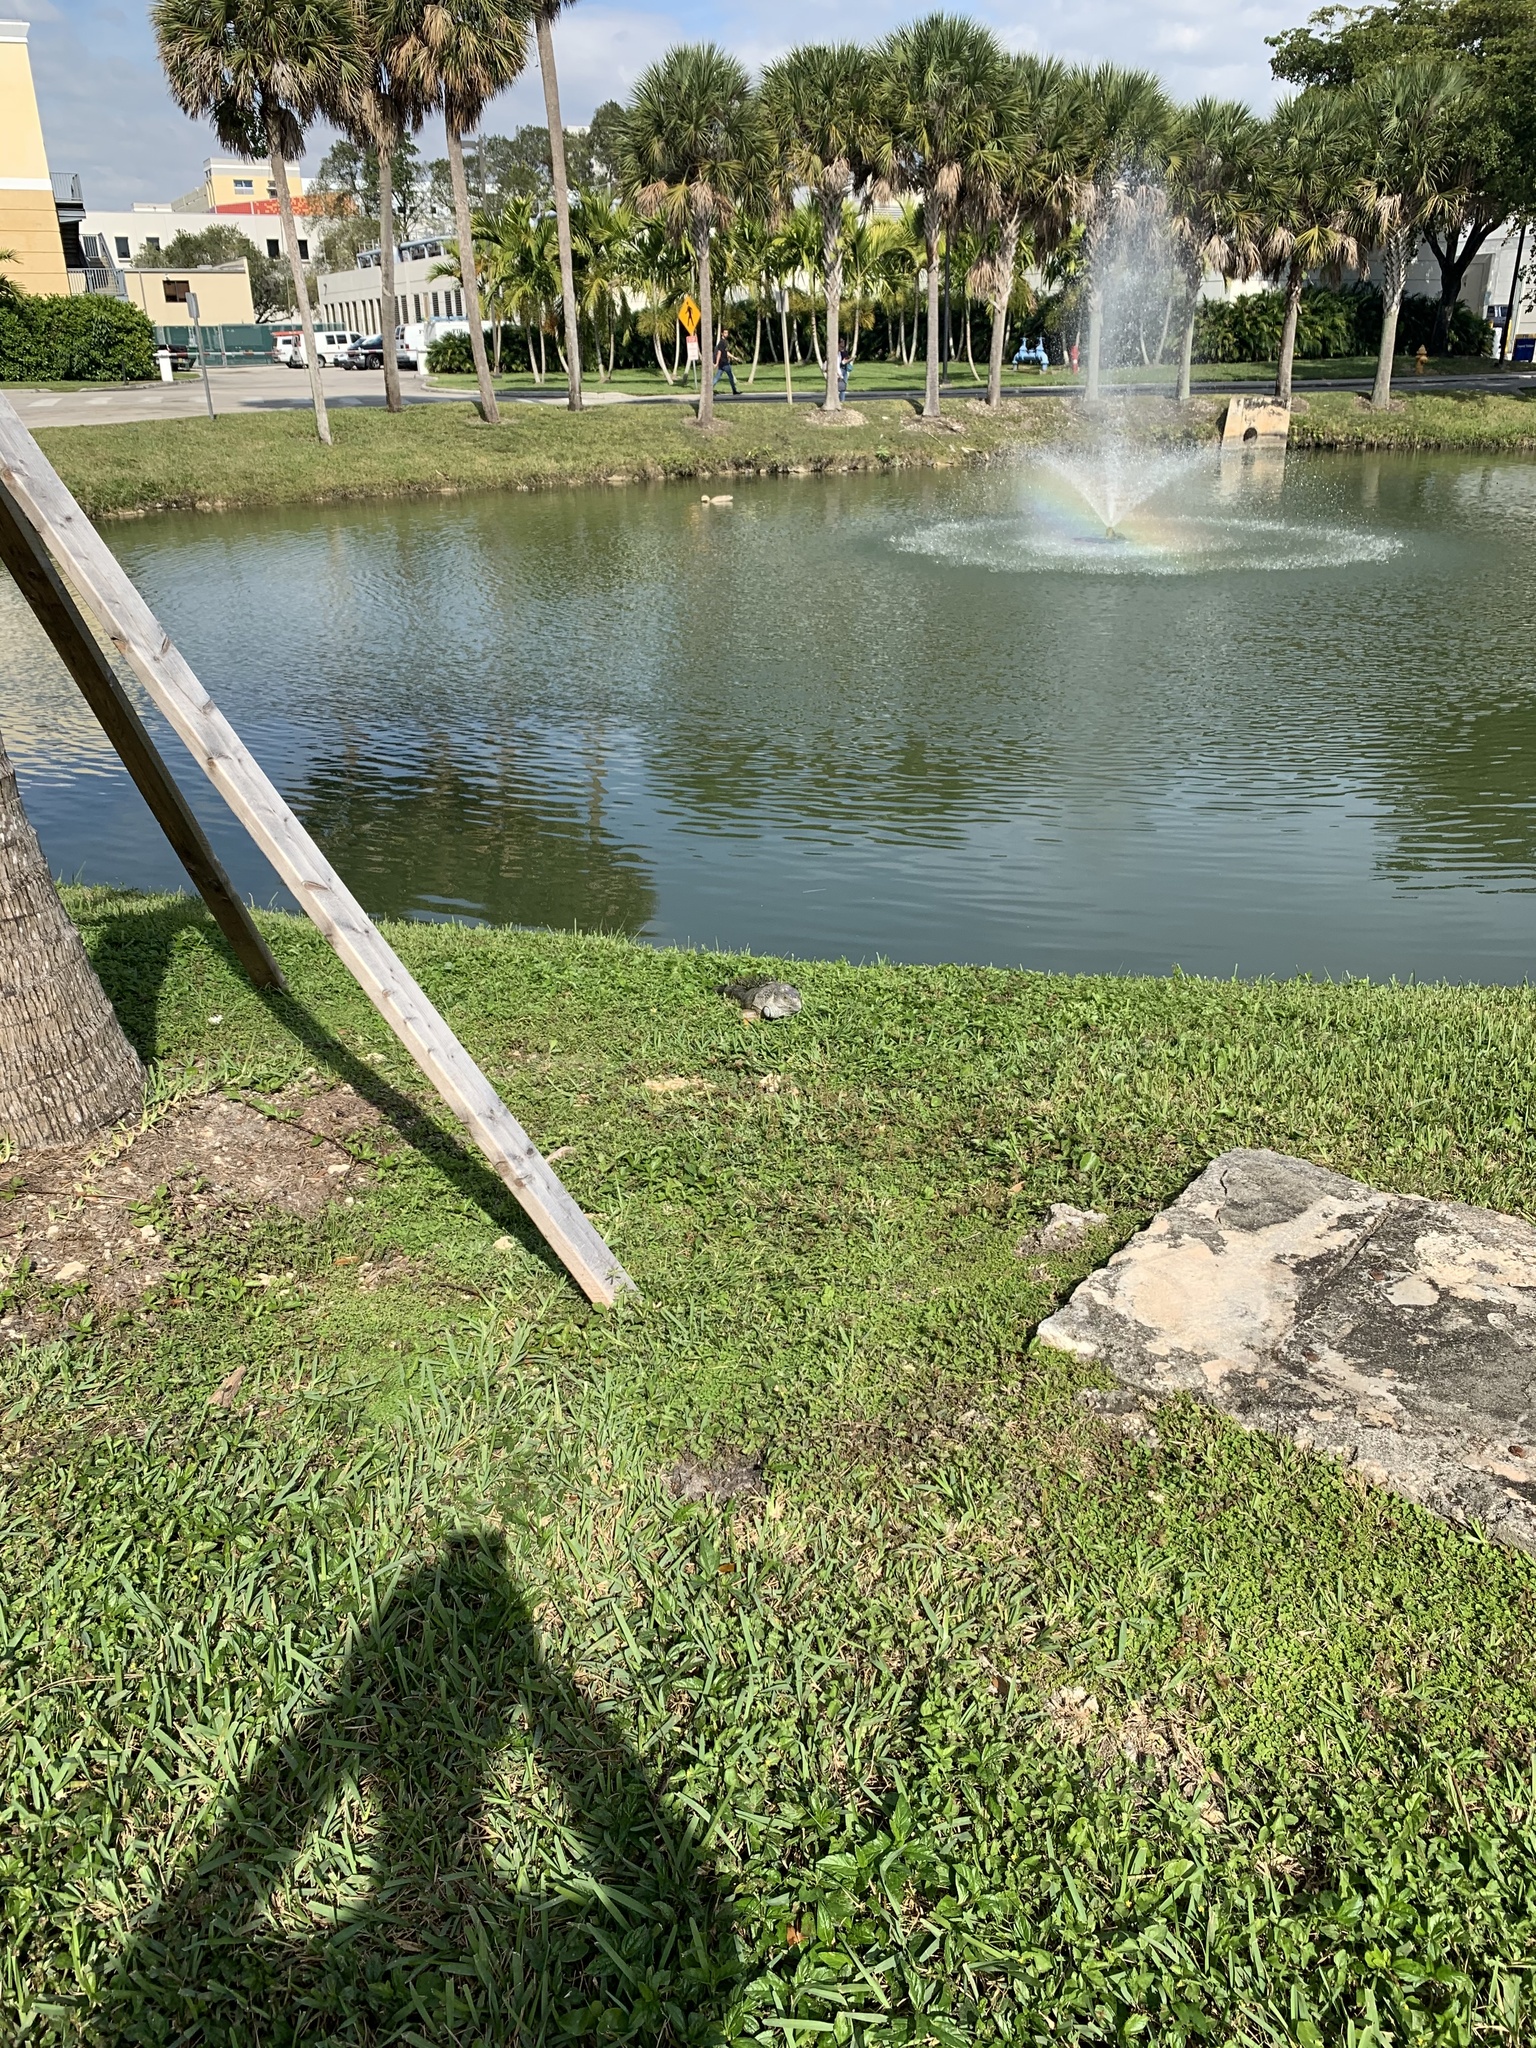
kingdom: Animalia
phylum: Chordata
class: Squamata
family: Iguanidae
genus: Iguana
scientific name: Iguana iguana
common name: Green iguana
